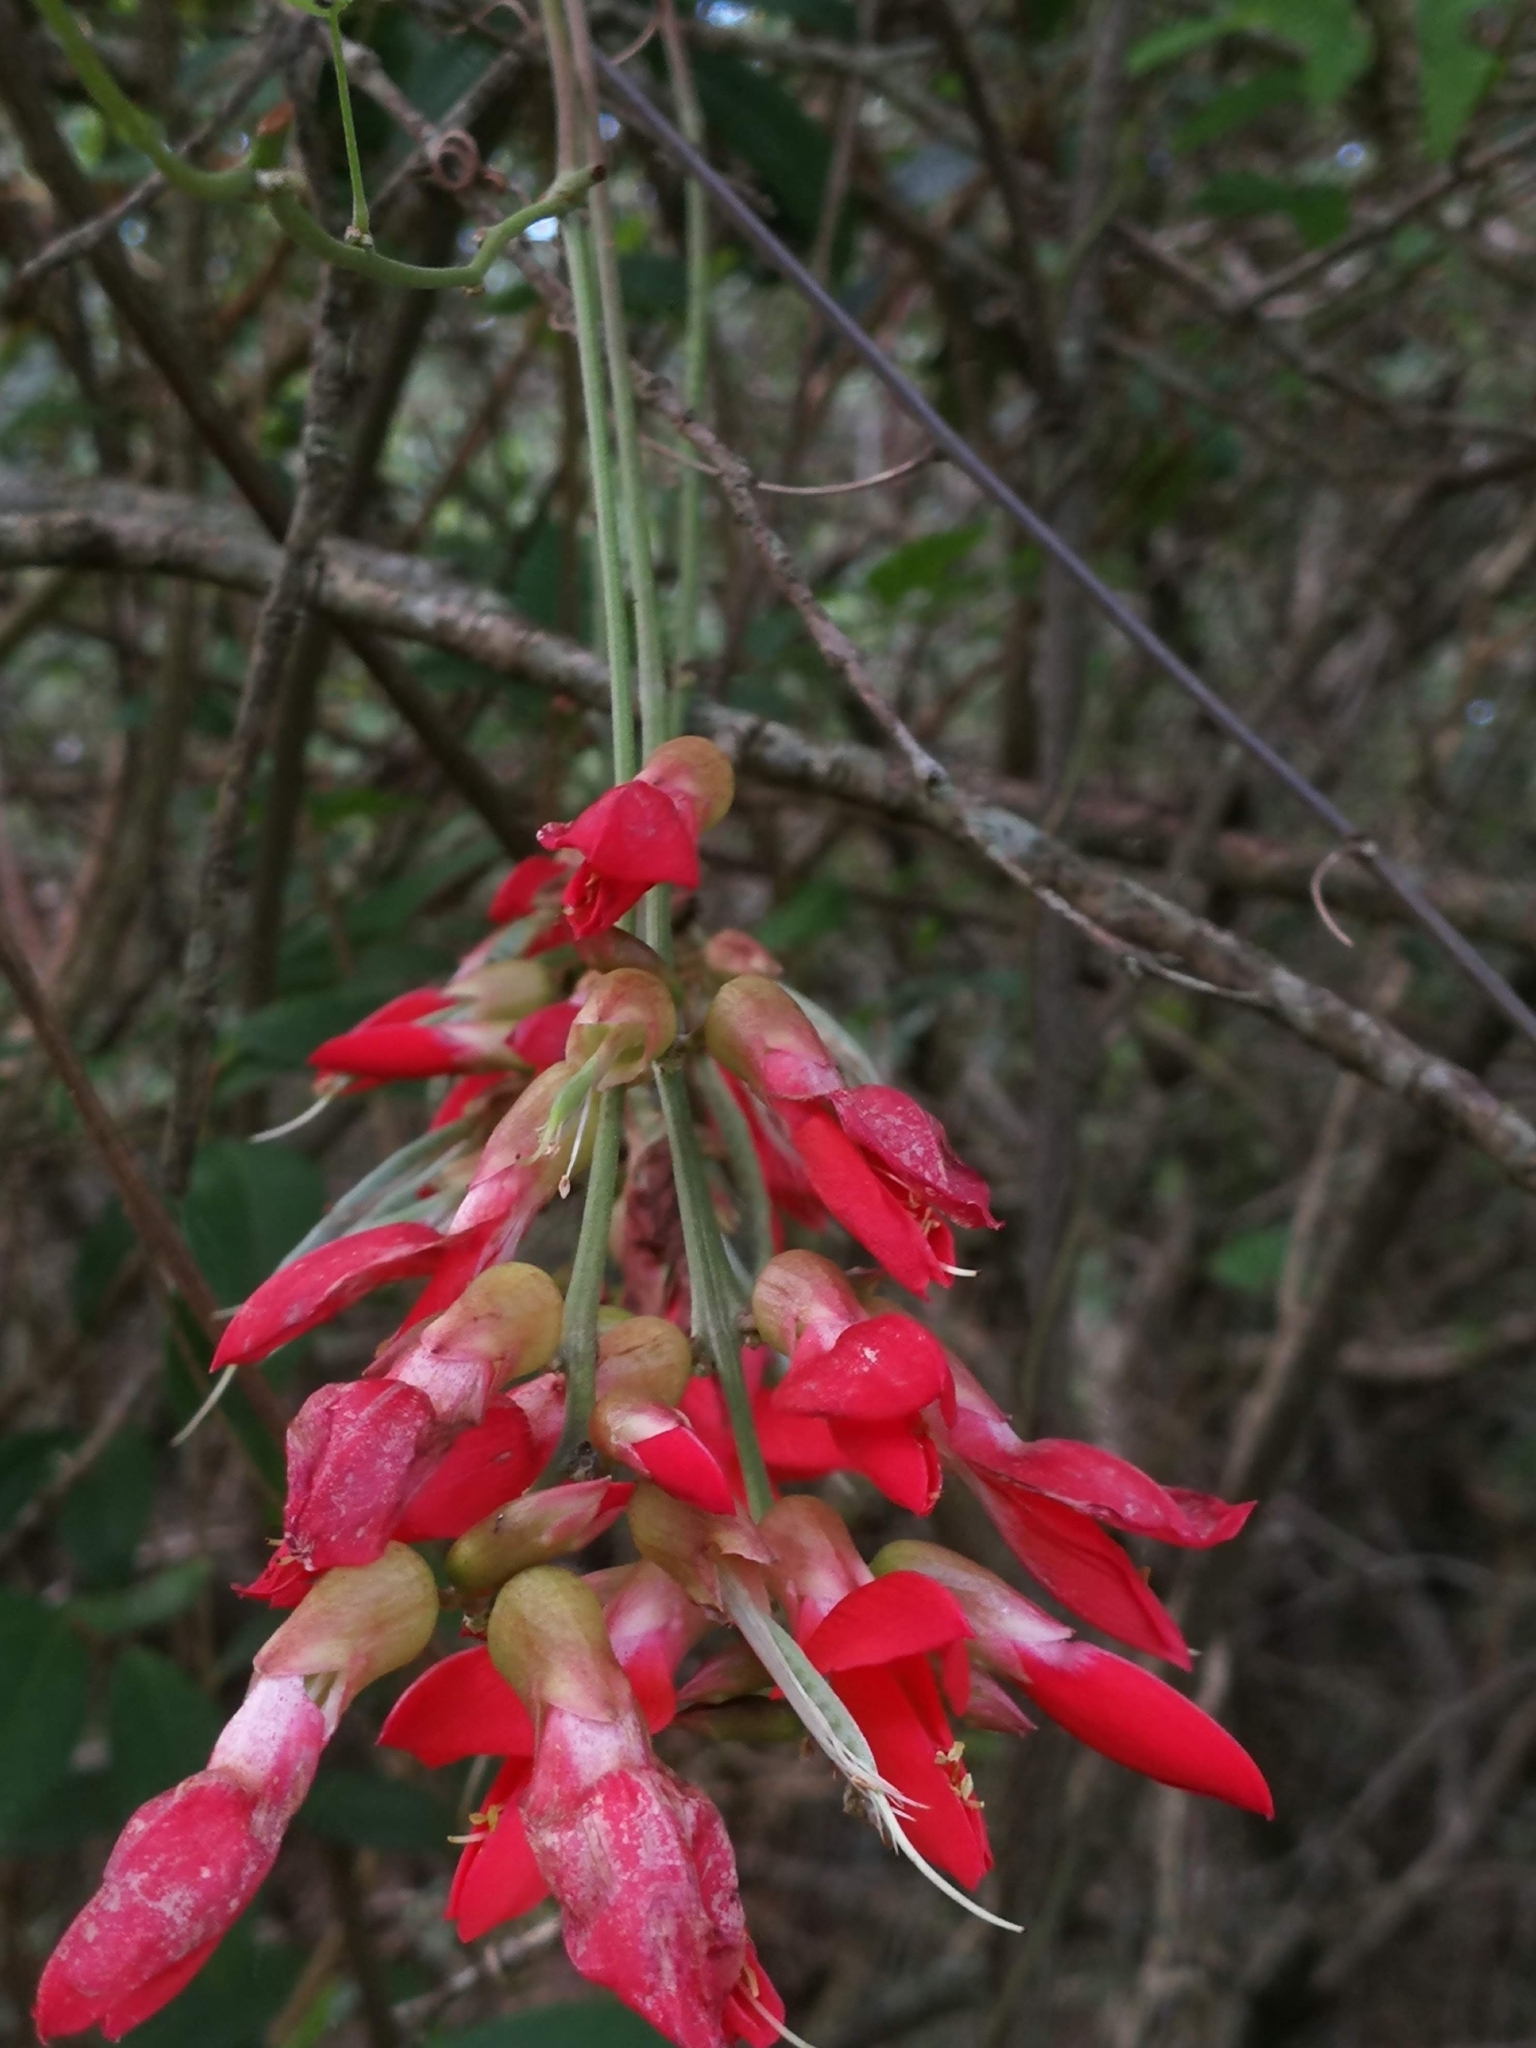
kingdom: Plantae
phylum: Tracheophyta
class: Magnoliopsida
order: Fabales
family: Fabaceae
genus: Camptosema
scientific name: Camptosema rubicundum
